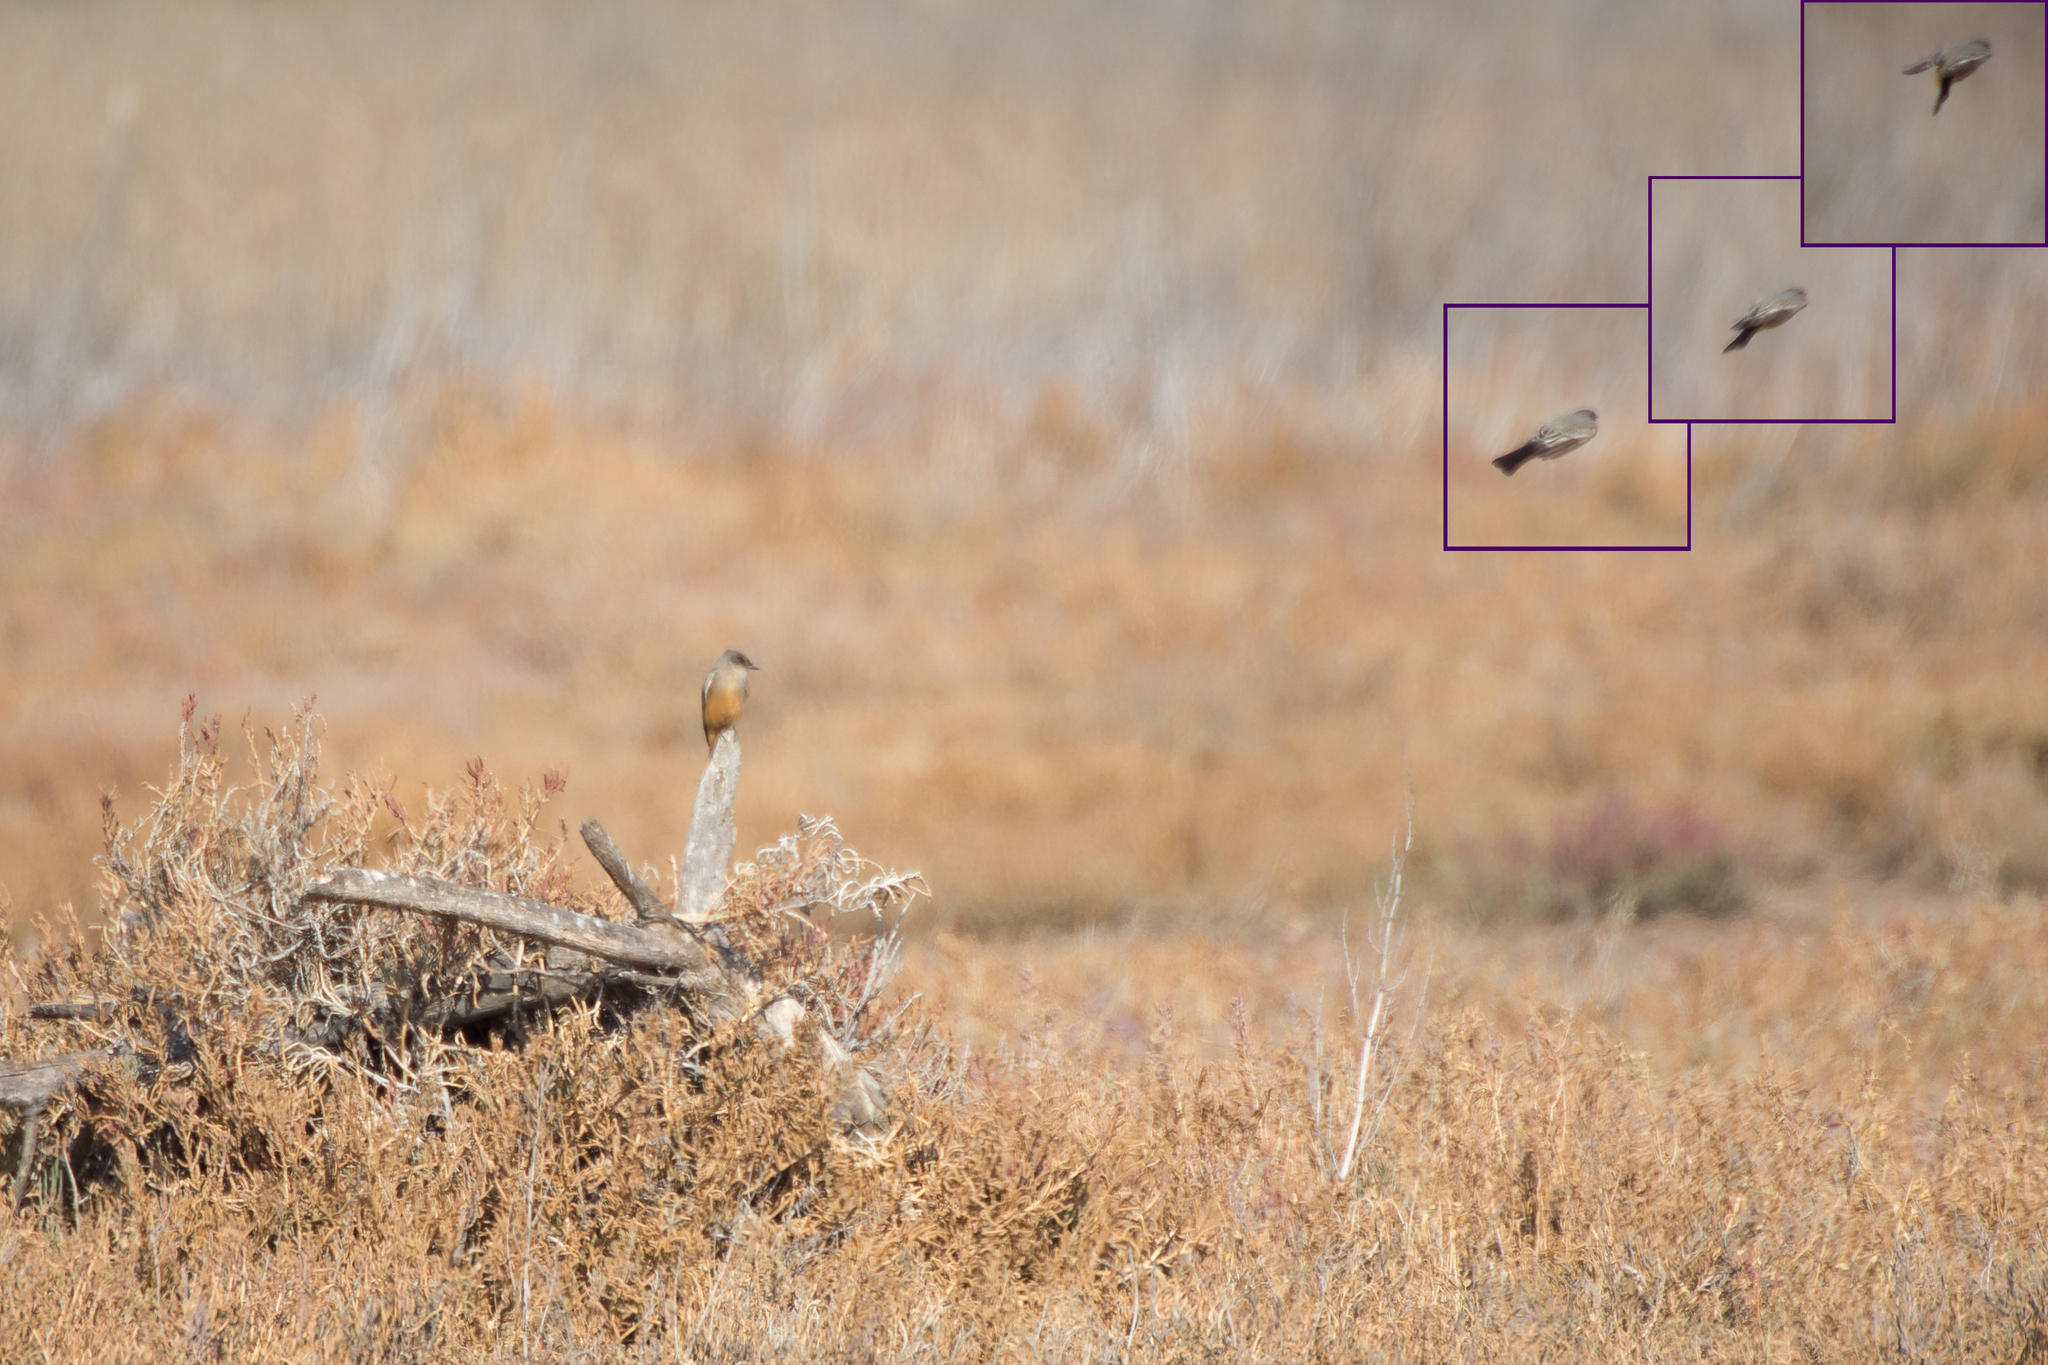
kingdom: Animalia
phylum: Chordata
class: Aves
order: Passeriformes
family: Tyrannidae
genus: Sayornis
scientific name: Sayornis saya
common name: Say's phoebe
